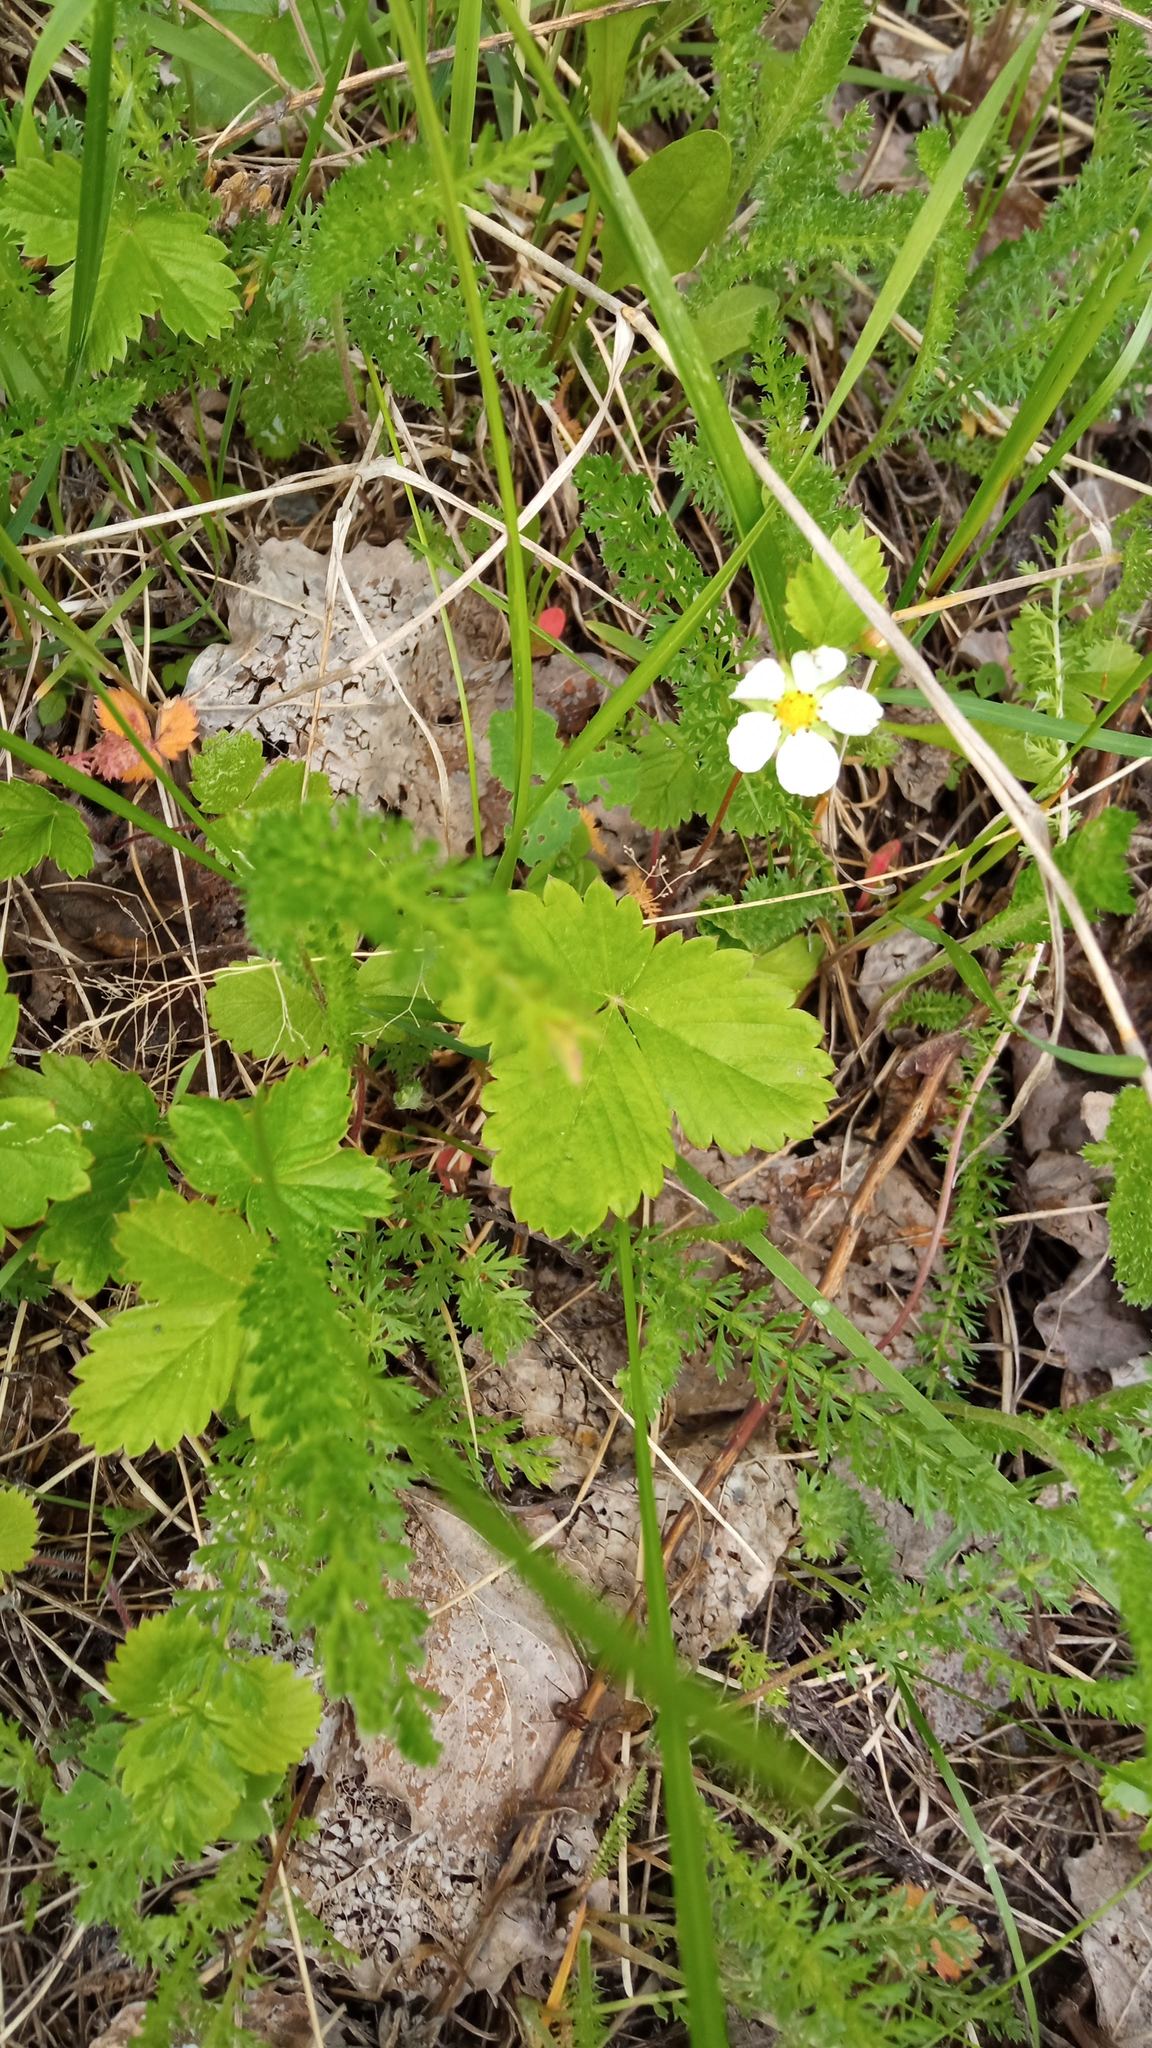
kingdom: Plantae
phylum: Tracheophyta
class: Magnoliopsida
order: Rosales
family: Rosaceae
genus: Fragaria
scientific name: Fragaria vesca
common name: Wild strawberry
